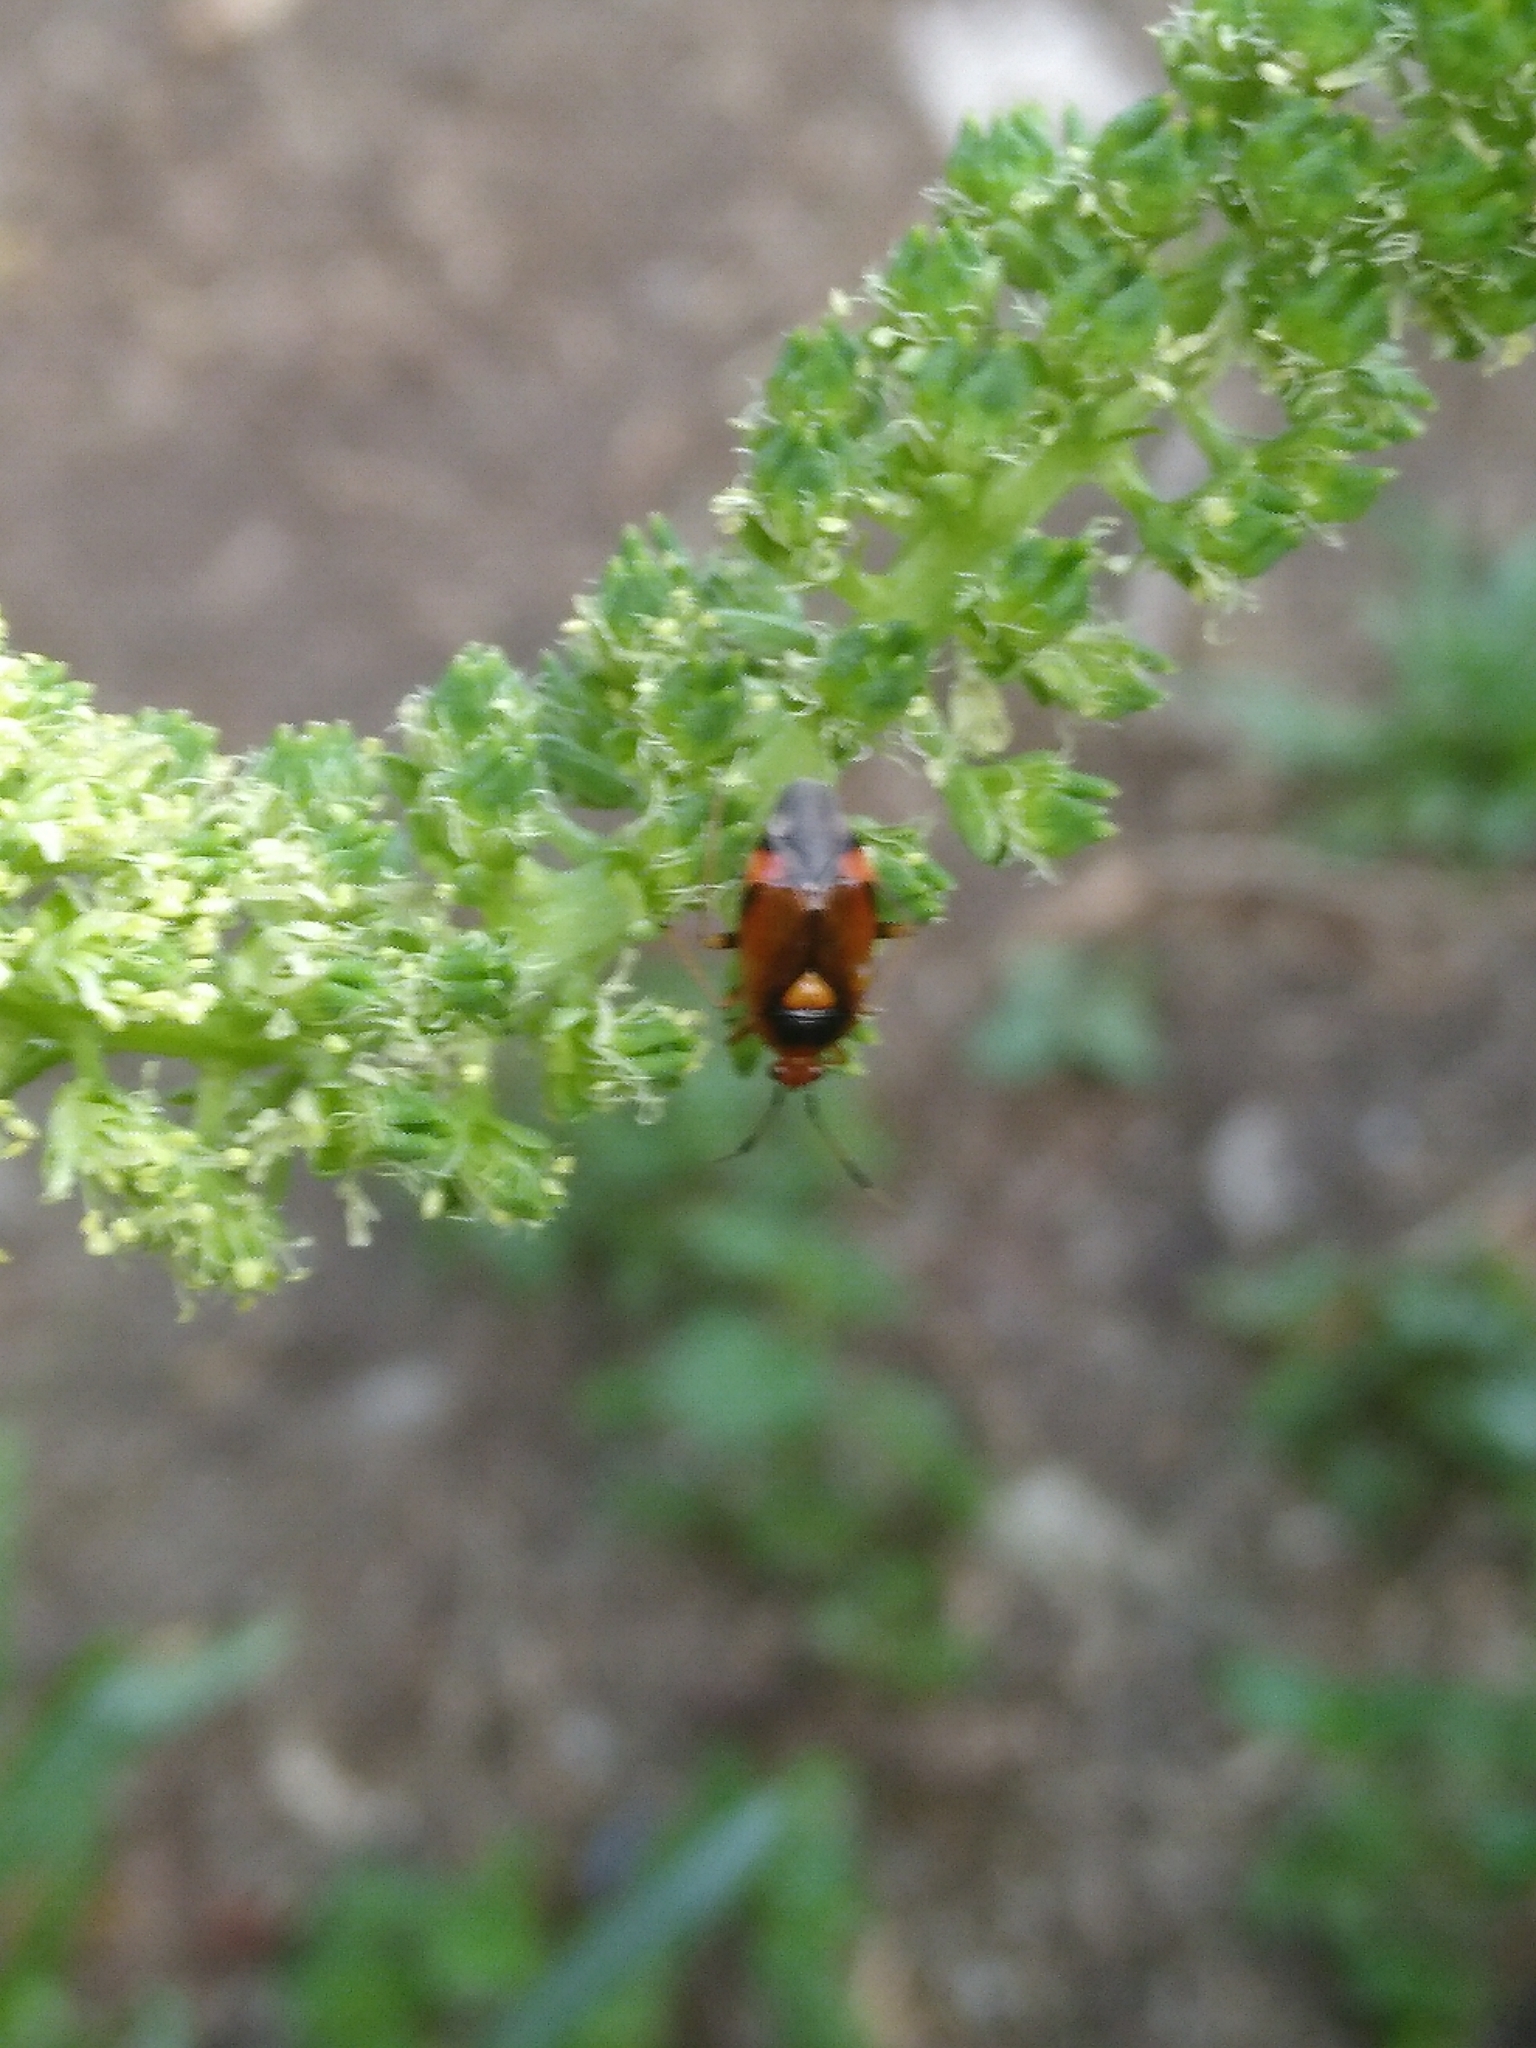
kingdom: Animalia
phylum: Arthropoda
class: Insecta
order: Hemiptera
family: Miridae
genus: Deraeocoris
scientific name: Deraeocoris ruber
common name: Plant bug
